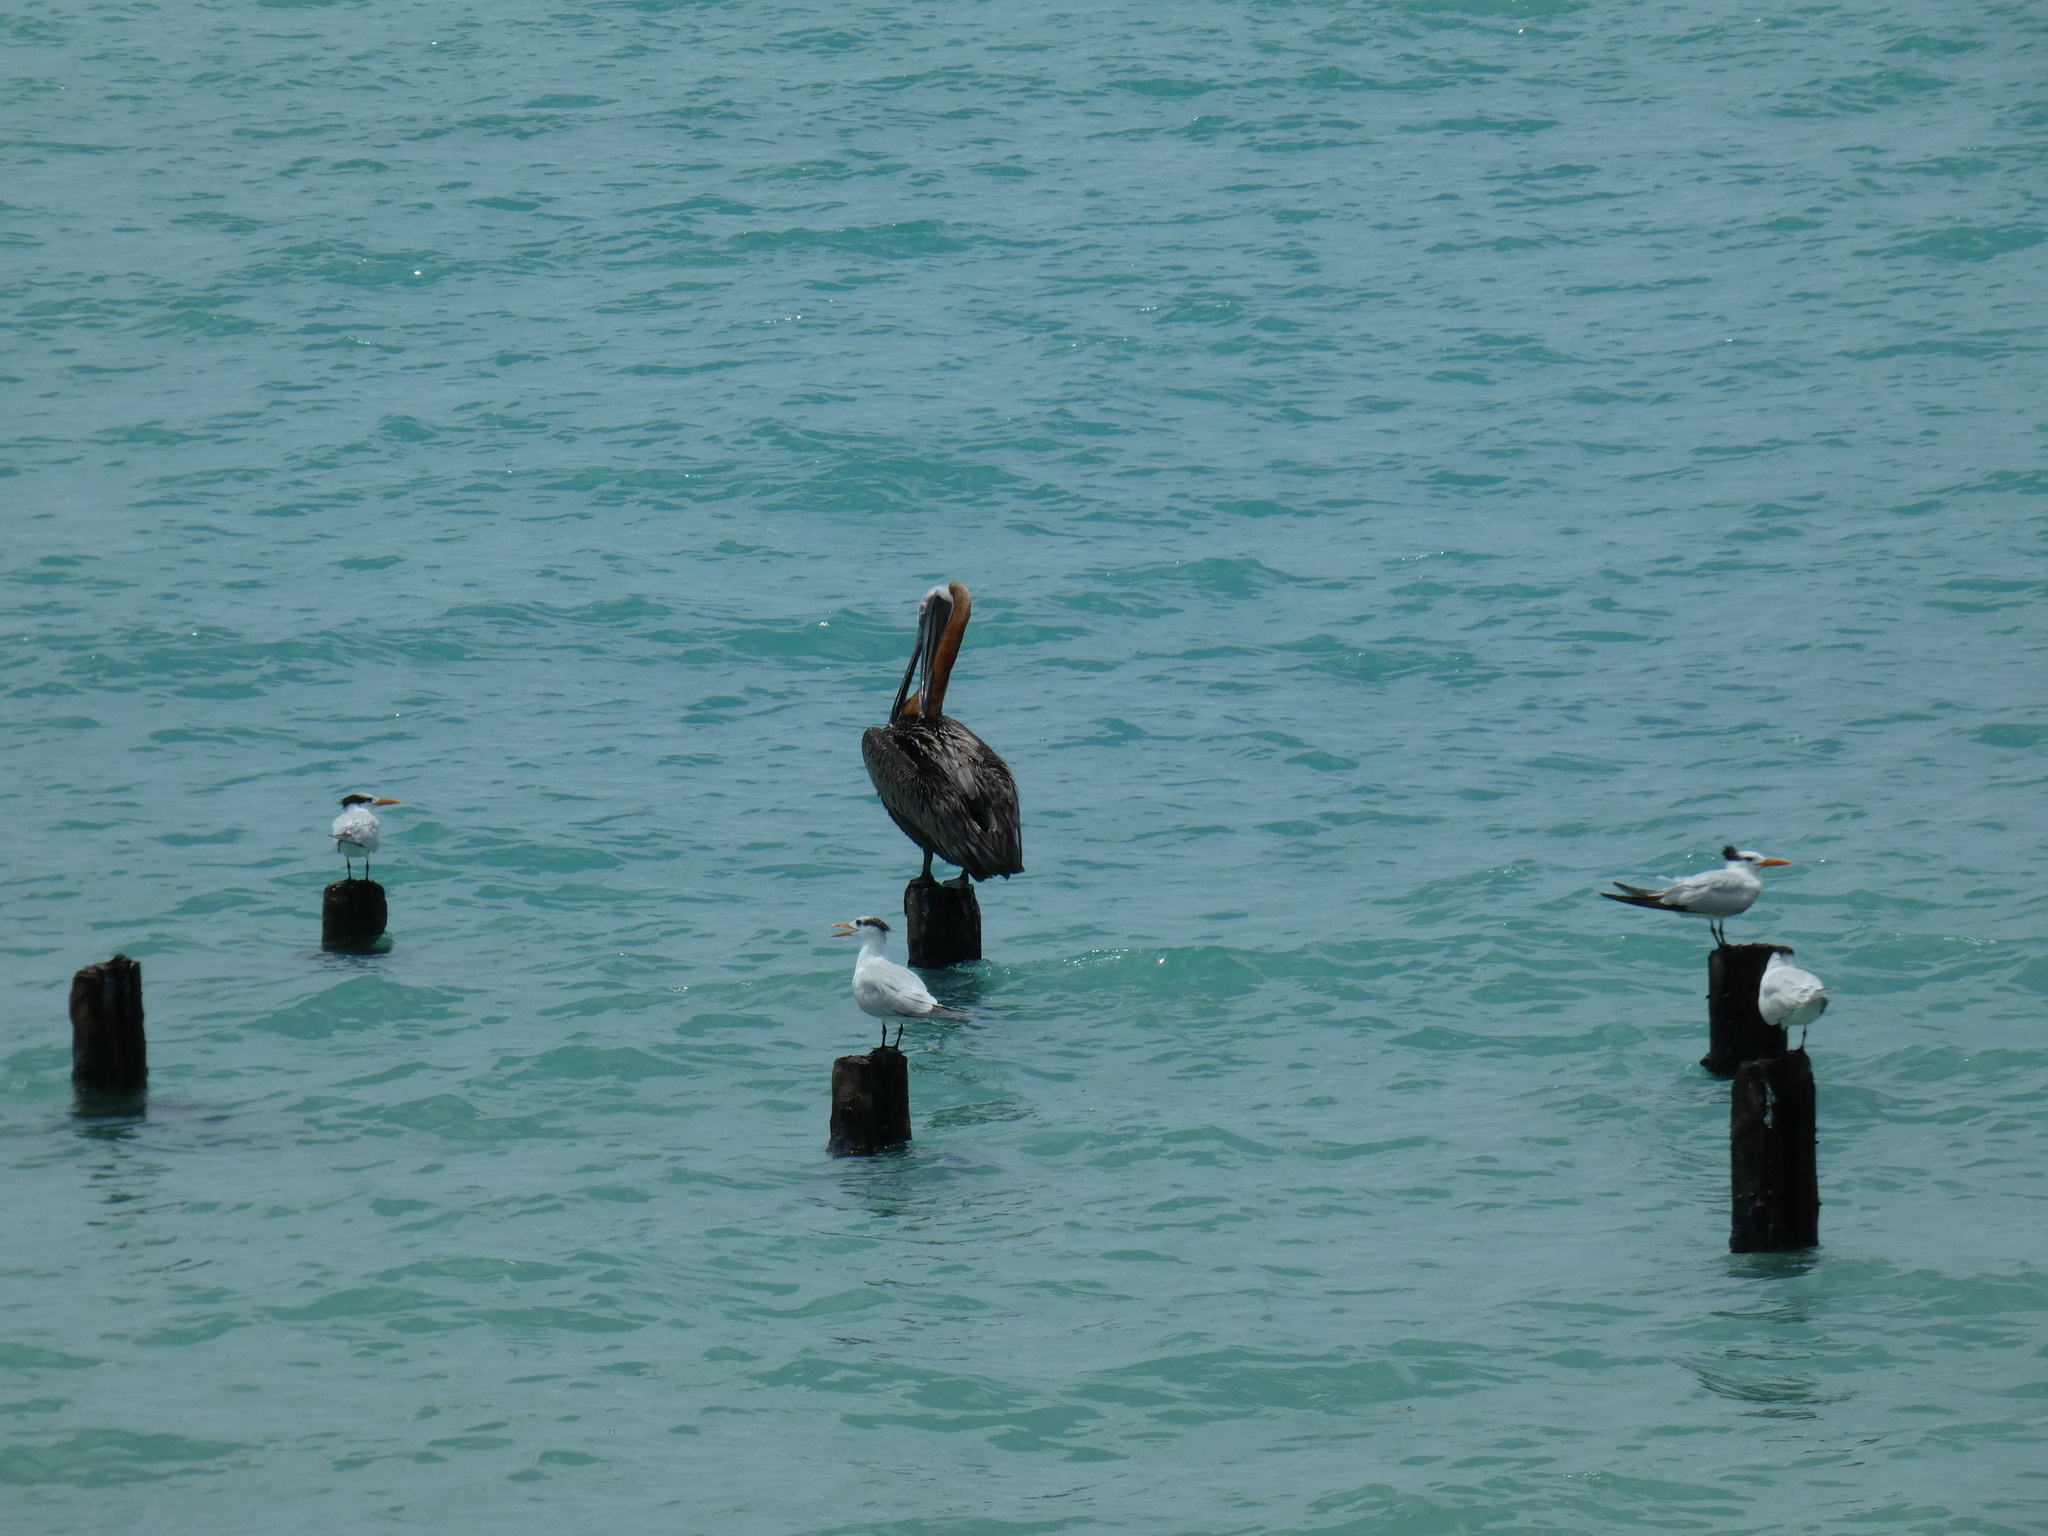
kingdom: Animalia
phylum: Chordata
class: Aves
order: Pelecaniformes
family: Pelecanidae
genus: Pelecanus
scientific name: Pelecanus occidentalis
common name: Brown pelican
